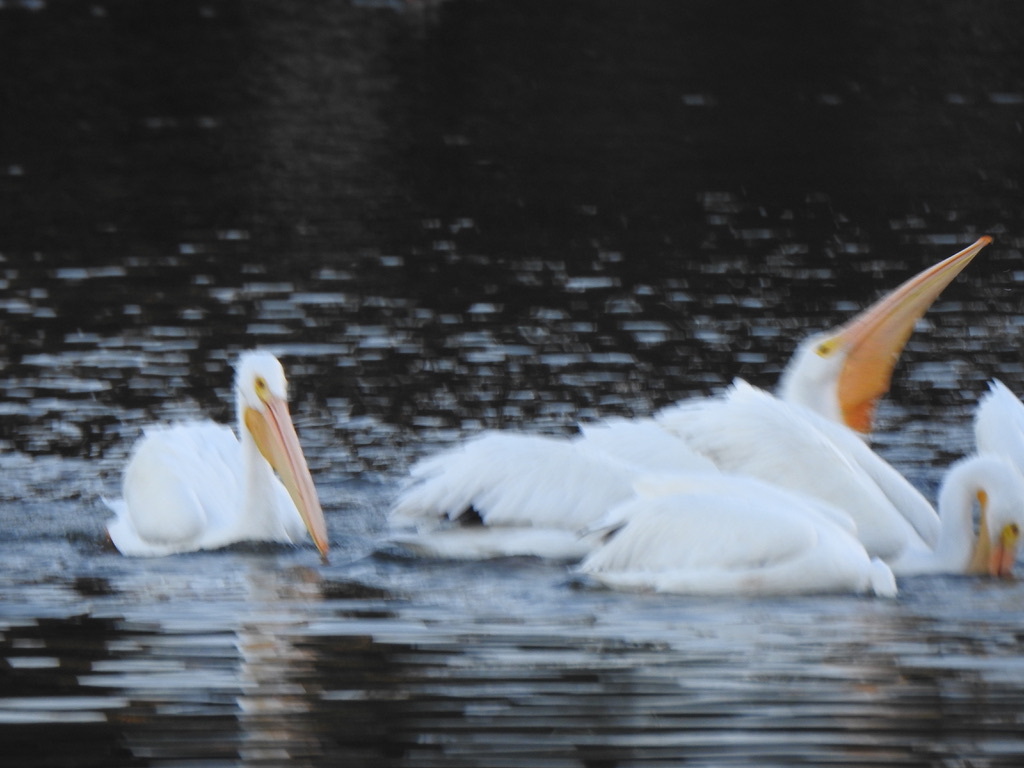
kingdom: Animalia
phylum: Chordata
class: Aves
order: Pelecaniformes
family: Pelecanidae
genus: Pelecanus
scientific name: Pelecanus erythrorhynchos
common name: American white pelican
